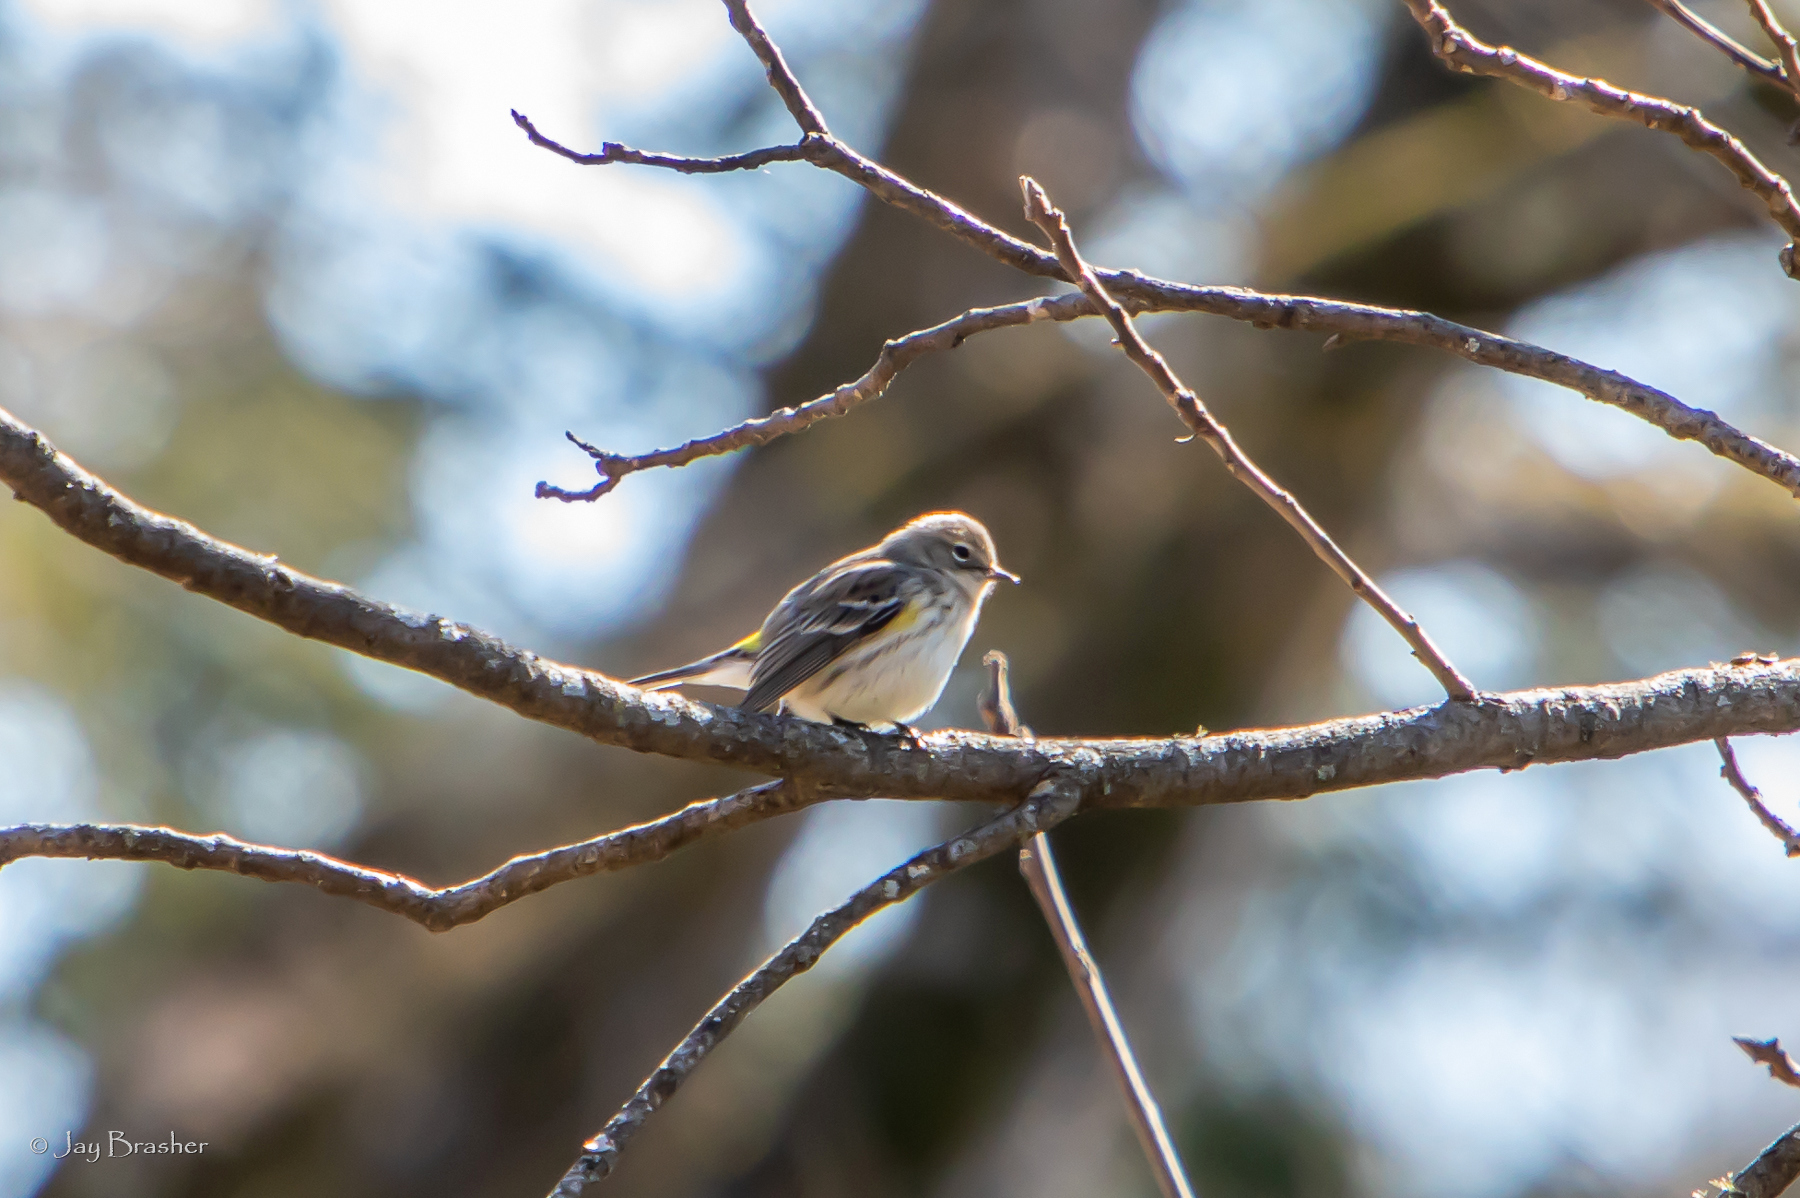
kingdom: Animalia
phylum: Chordata
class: Aves
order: Passeriformes
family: Parulidae
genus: Setophaga
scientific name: Setophaga coronata
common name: Myrtle warbler
